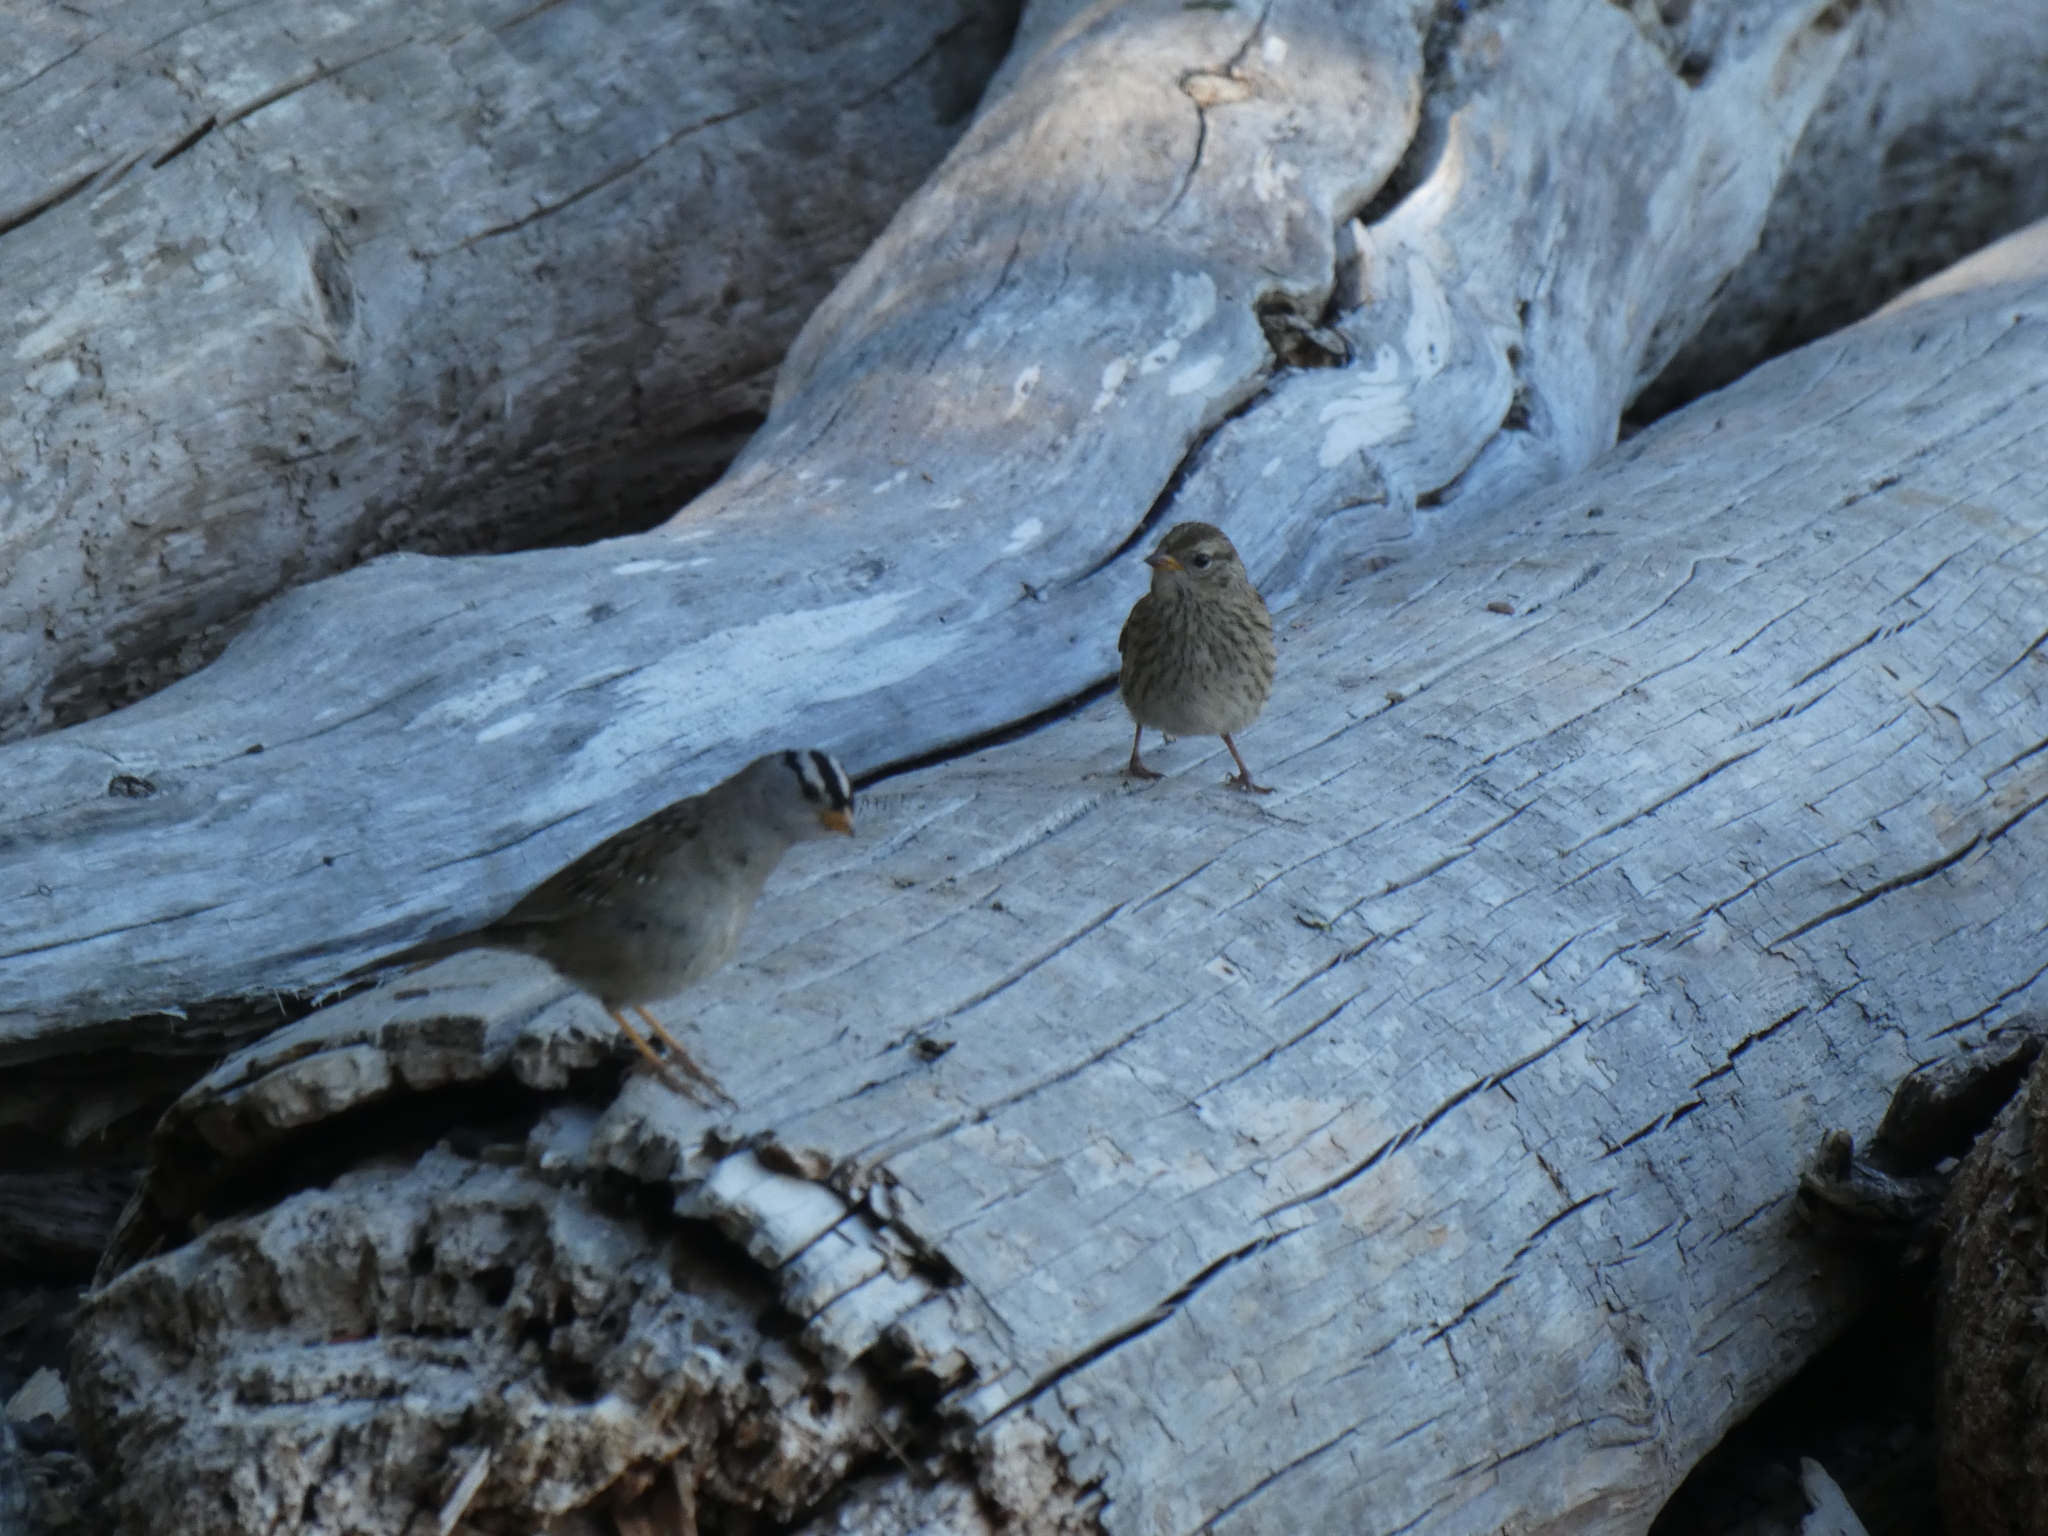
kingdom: Animalia
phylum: Chordata
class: Aves
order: Passeriformes
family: Passerellidae
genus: Zonotrichia
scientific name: Zonotrichia leucophrys
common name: White-crowned sparrow
